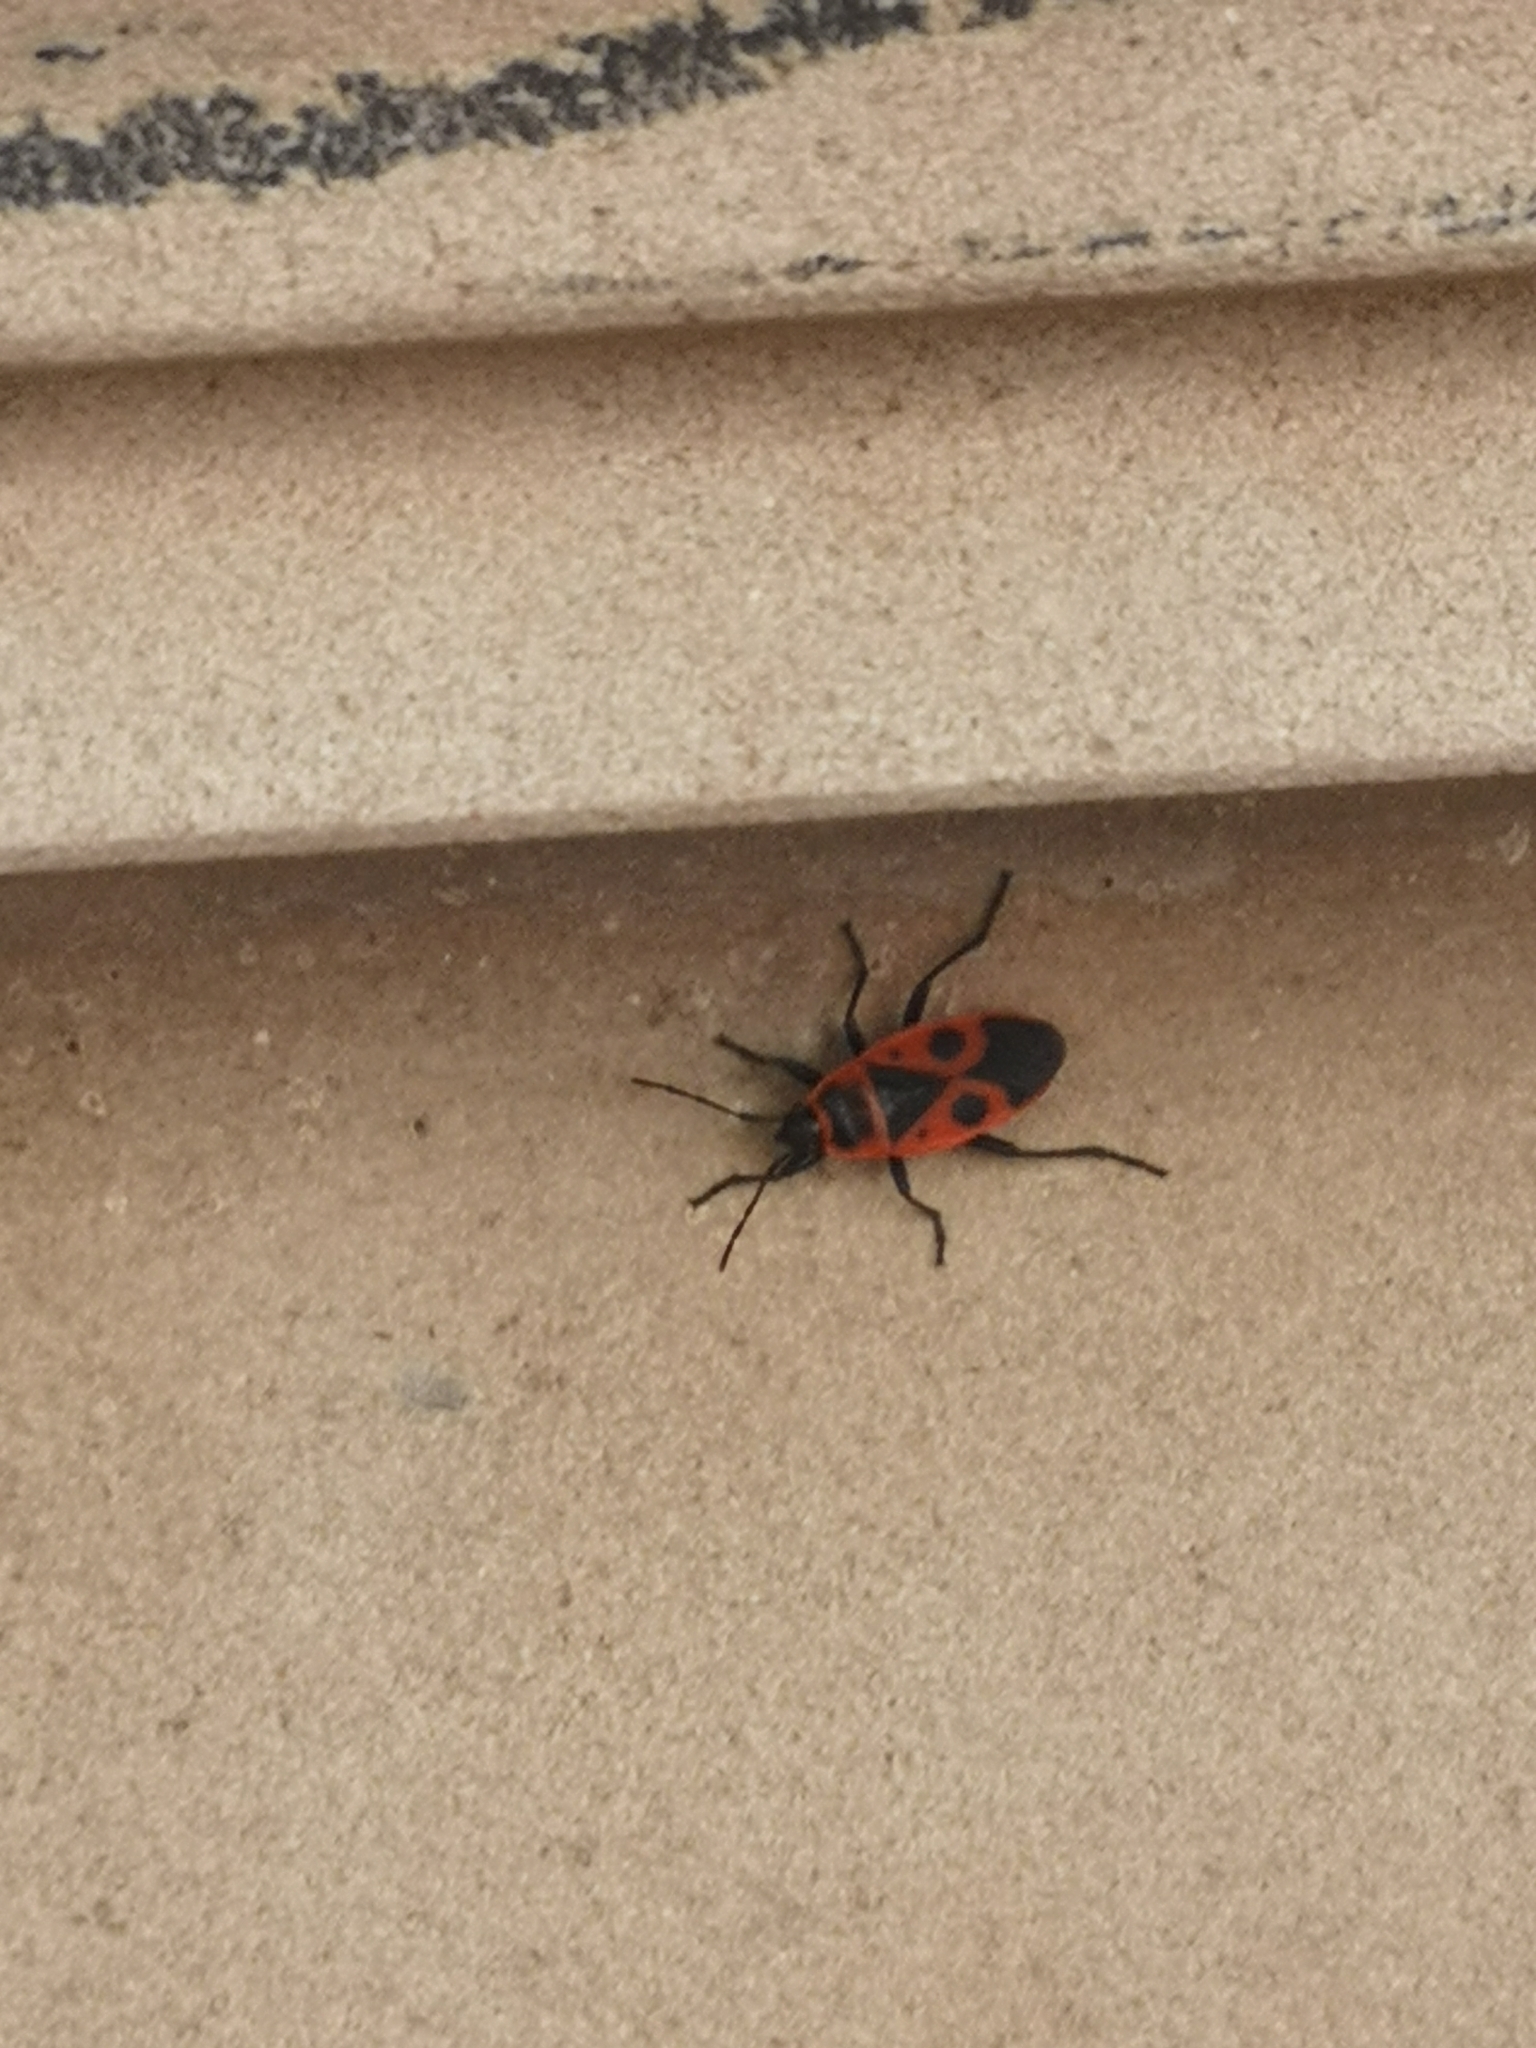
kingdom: Animalia
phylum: Arthropoda
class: Insecta
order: Hemiptera
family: Pyrrhocoridae
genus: Pyrrhocoris
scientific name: Pyrrhocoris apterus
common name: Firebug
